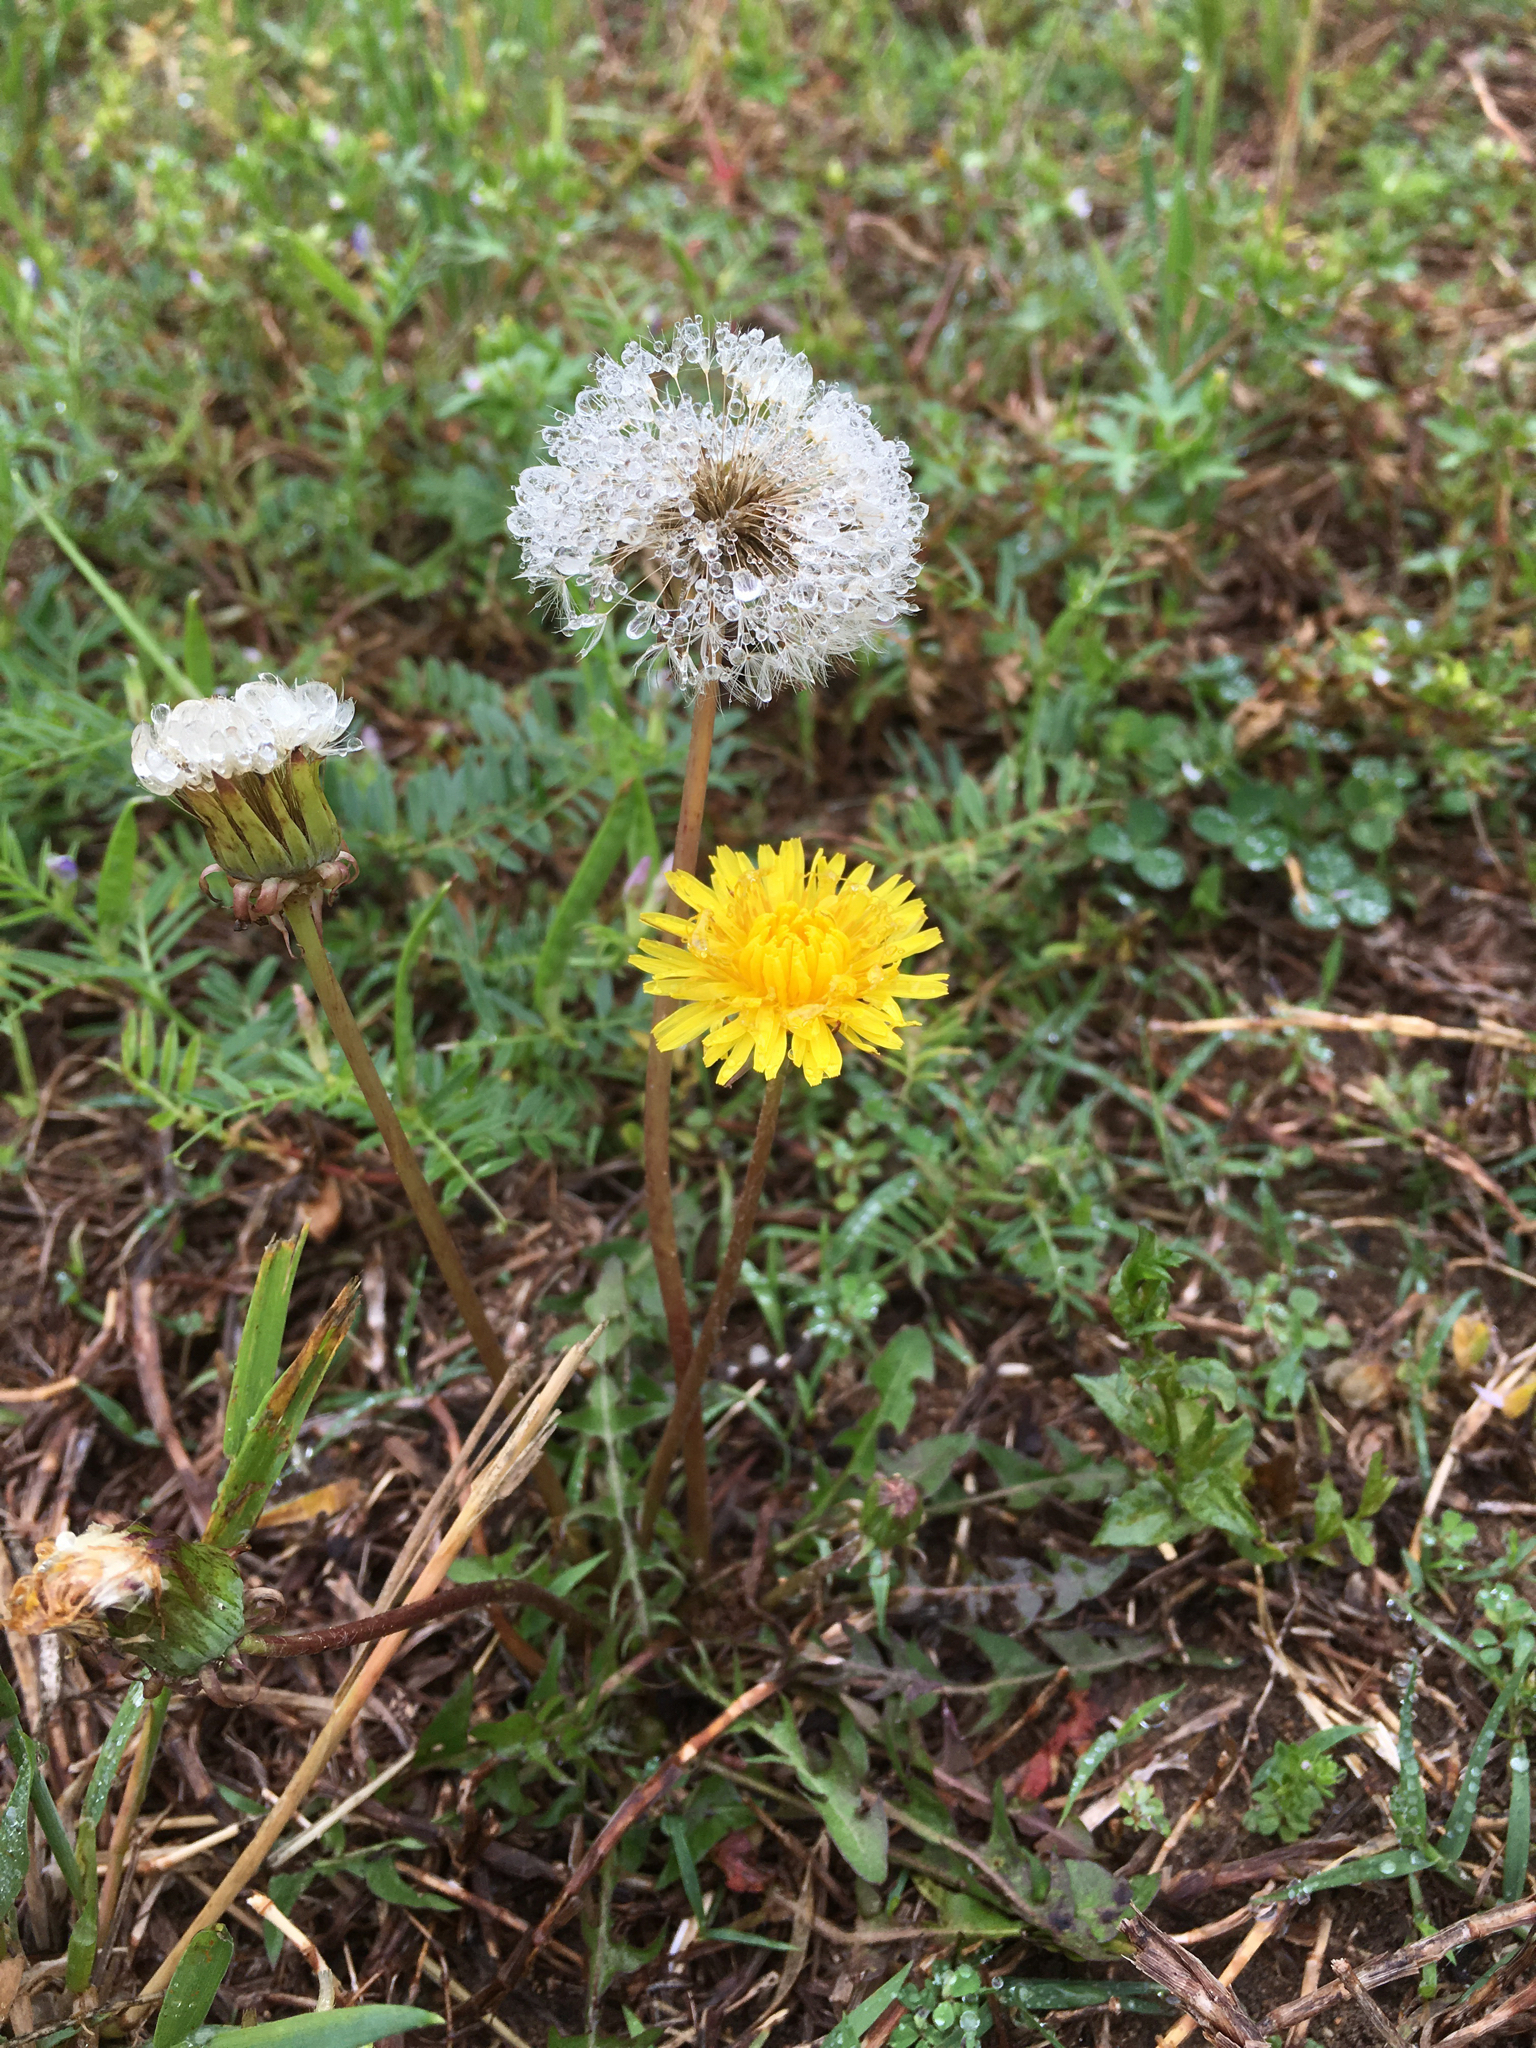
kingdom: Plantae
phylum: Tracheophyta
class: Magnoliopsida
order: Asterales
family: Asteraceae
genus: Taraxacum
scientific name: Taraxacum officinale
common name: Common dandelion
